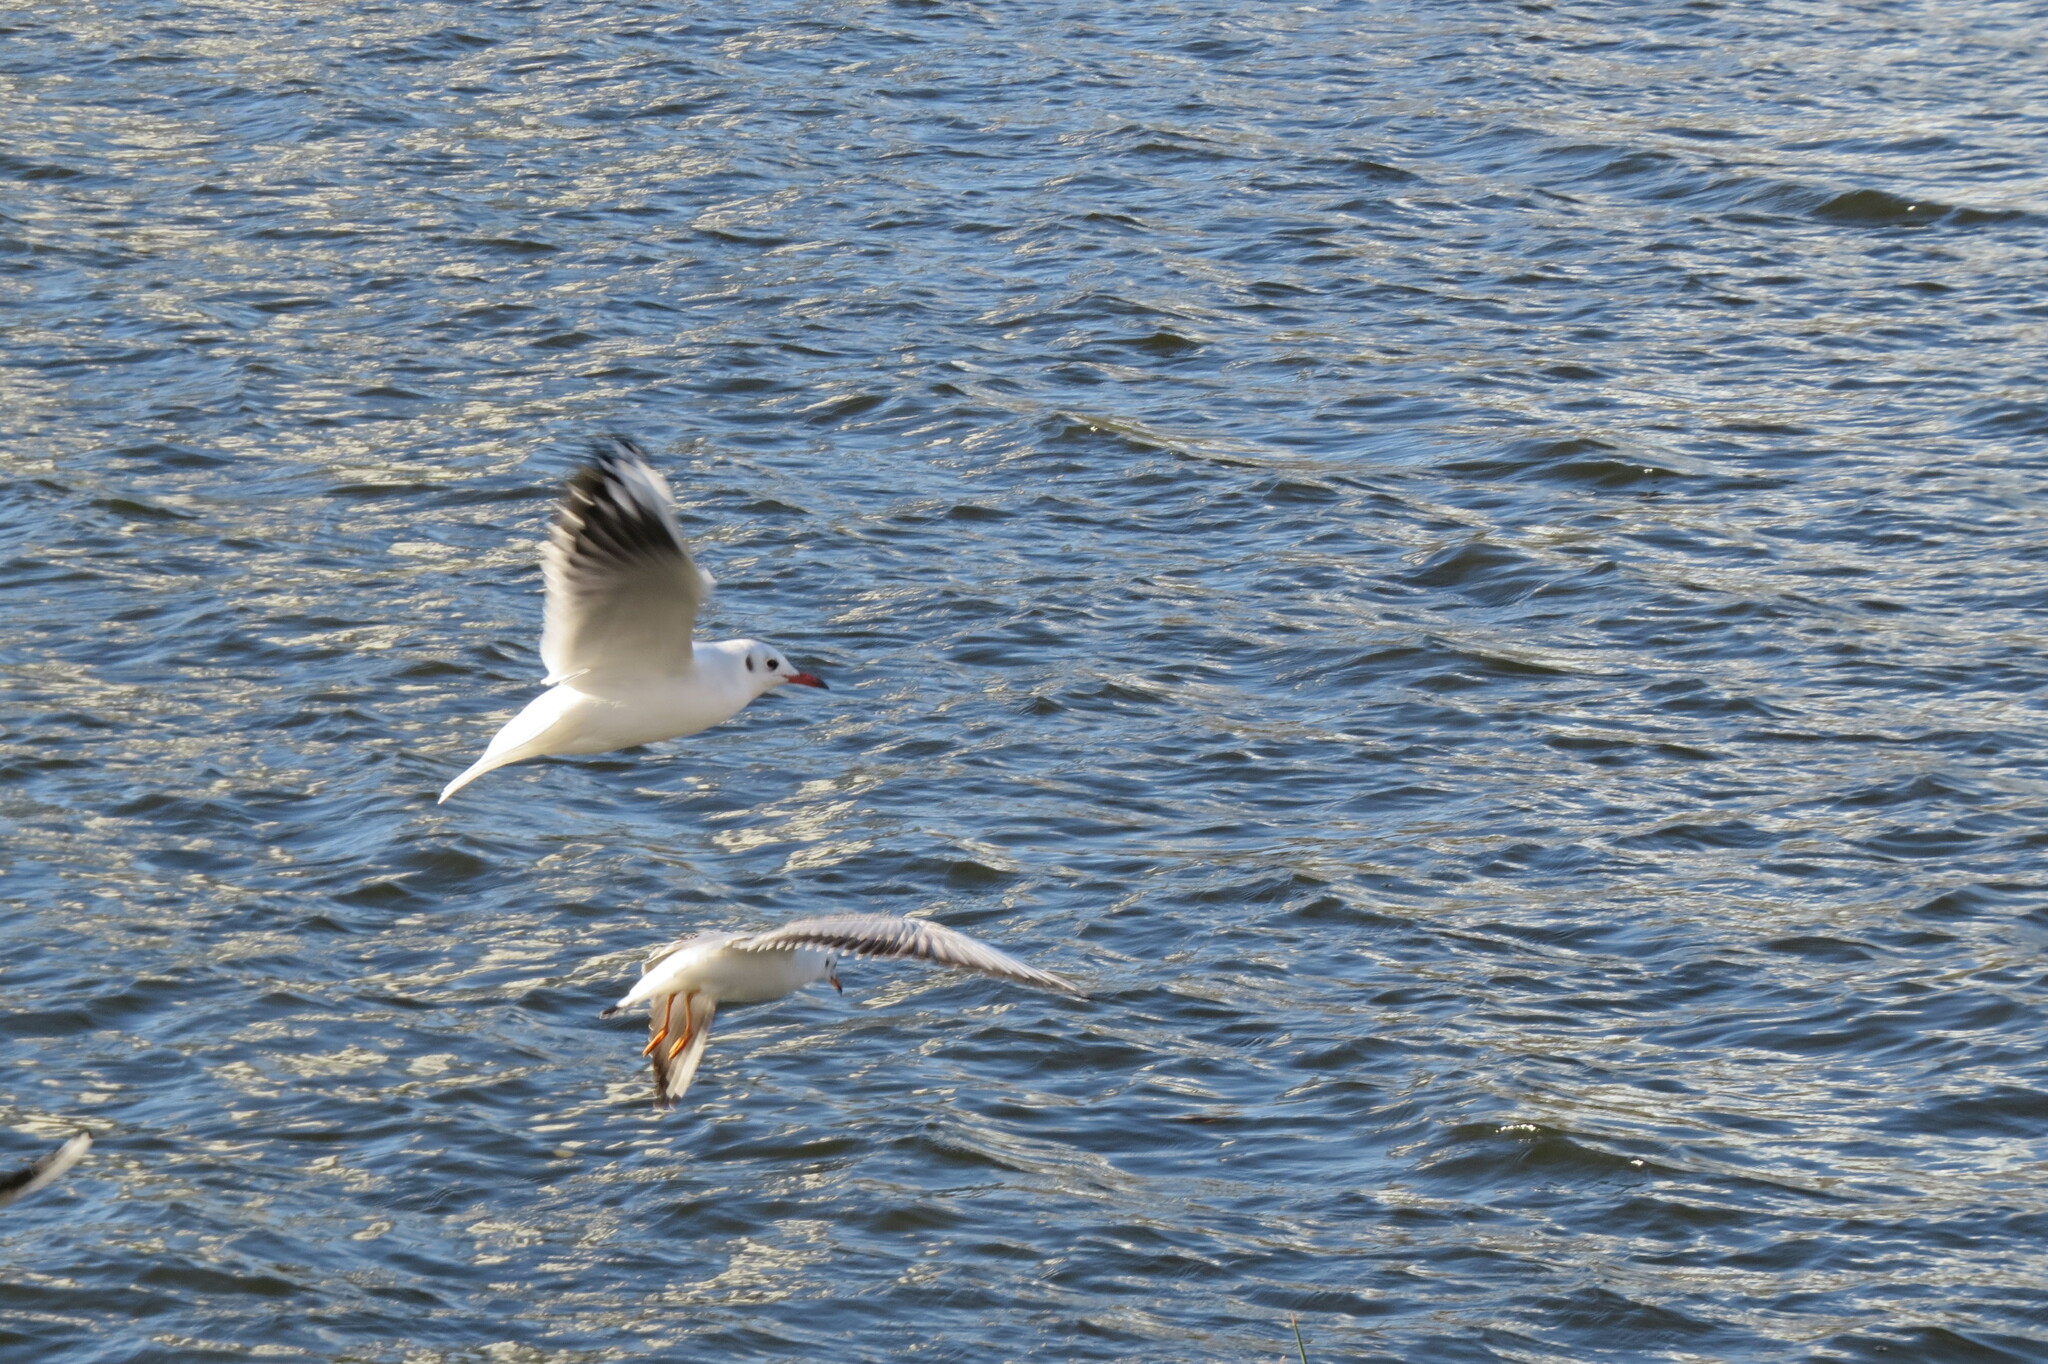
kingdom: Animalia
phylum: Chordata
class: Aves
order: Charadriiformes
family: Laridae
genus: Chroicocephalus
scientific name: Chroicocephalus ridibundus
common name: Black-headed gull
